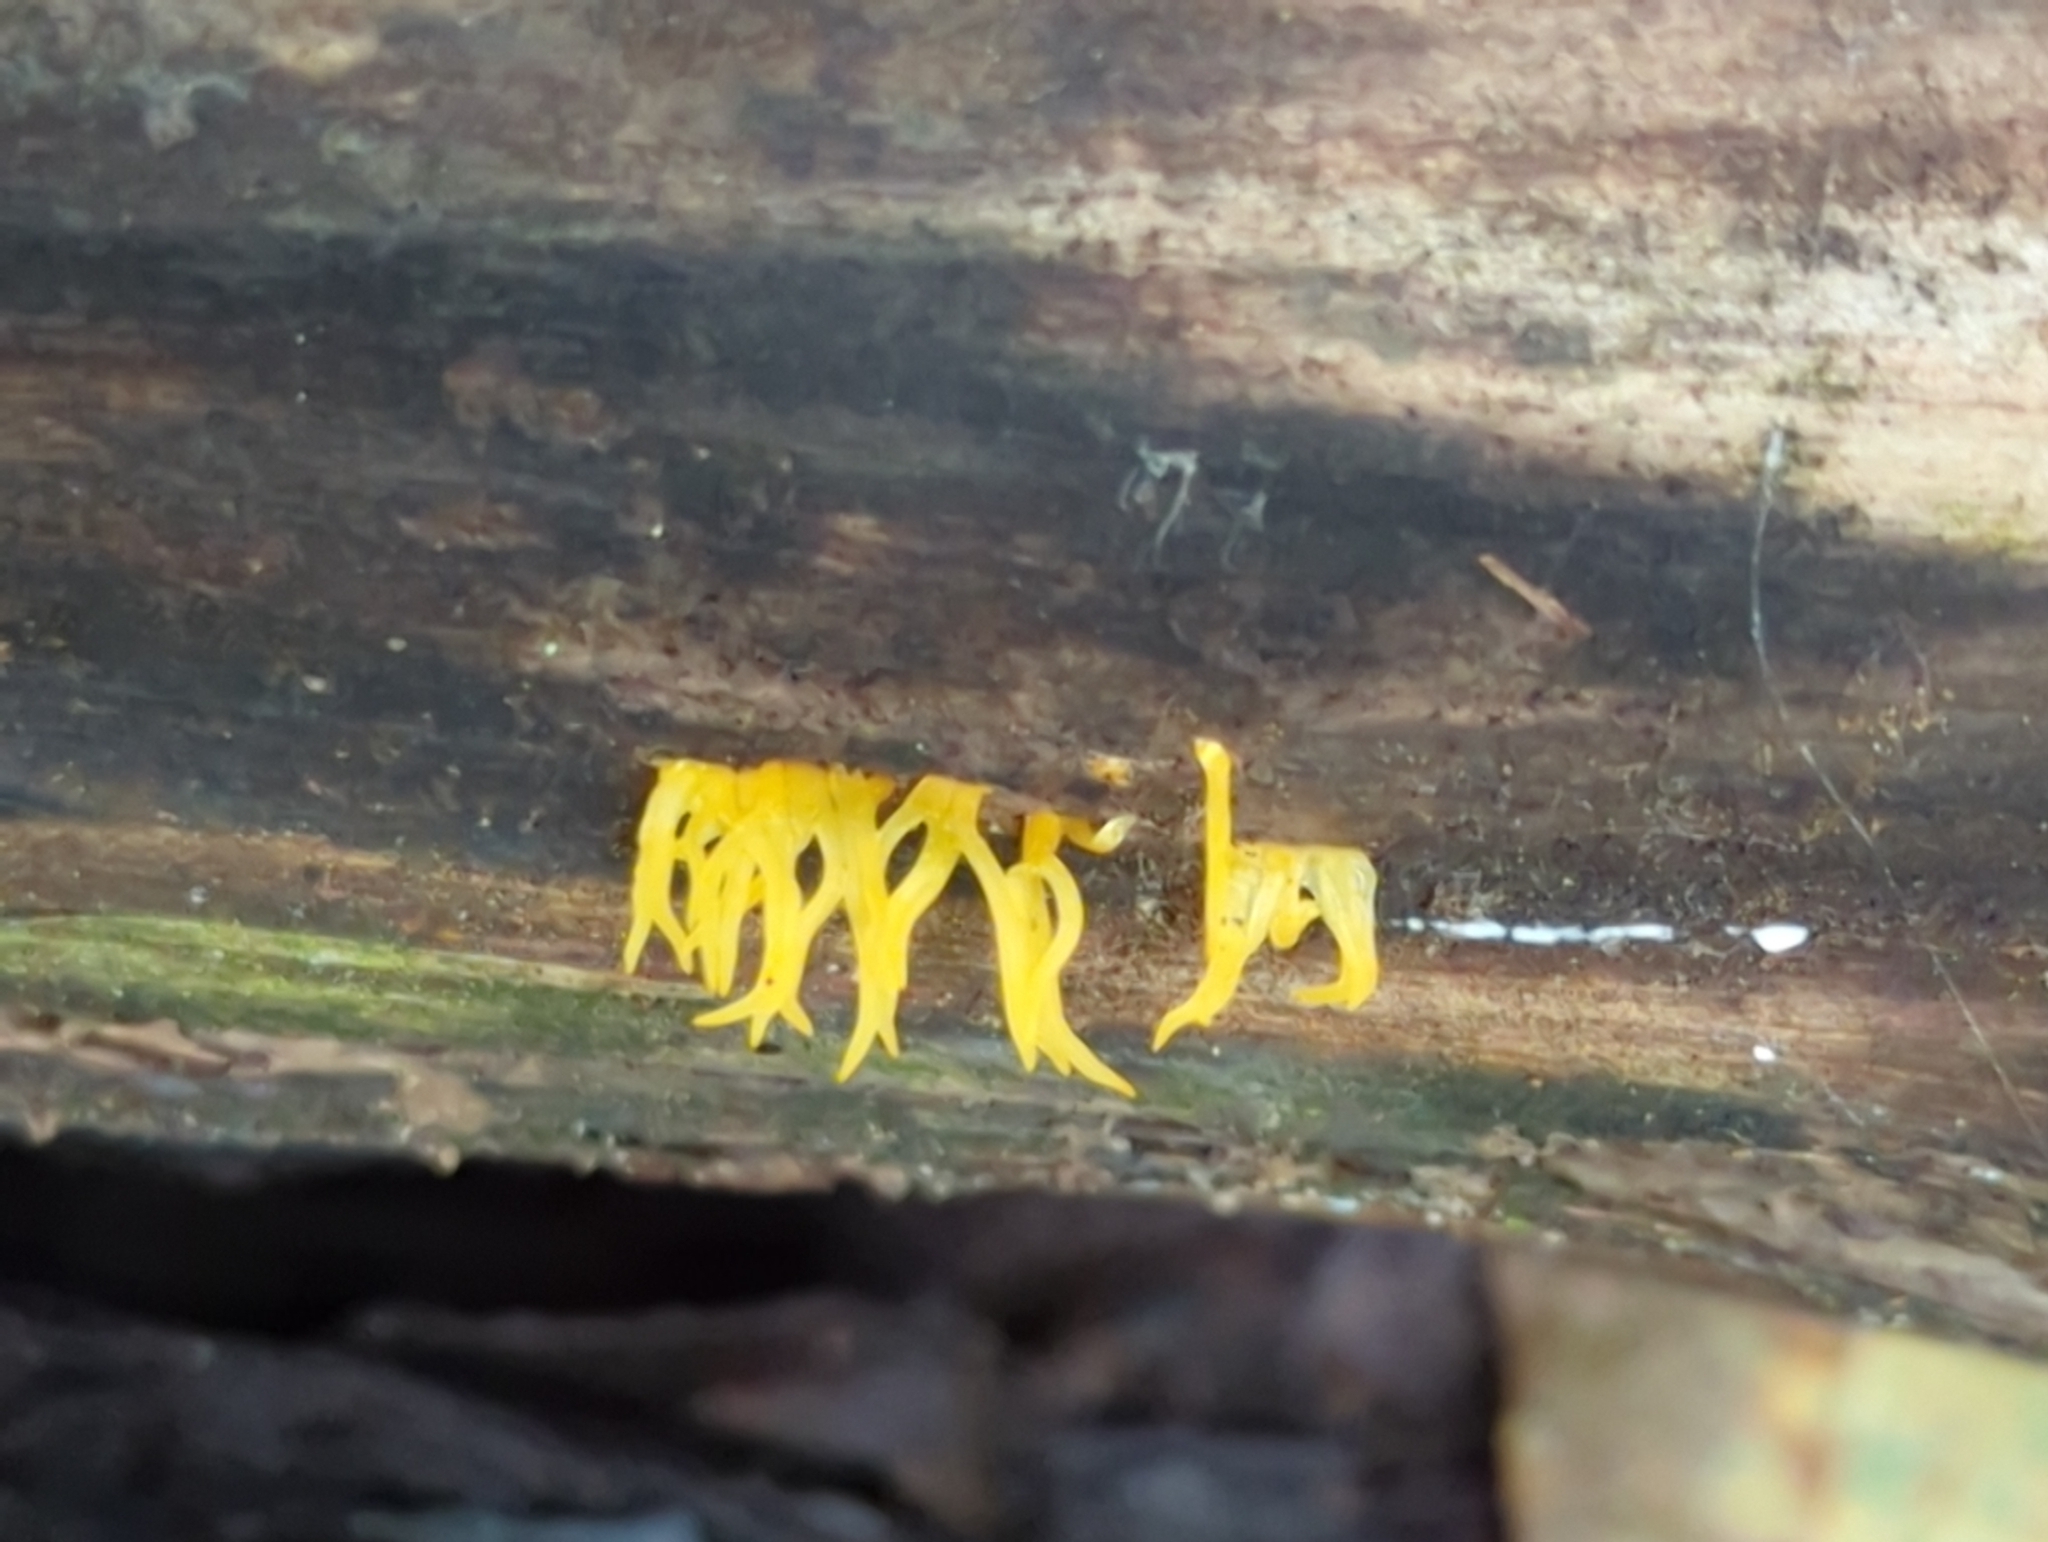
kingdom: Fungi
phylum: Basidiomycota
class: Dacrymycetes
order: Dacrymycetales
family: Dacrymycetaceae
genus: Calocera
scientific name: Calocera cornea
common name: Small stagshorn
